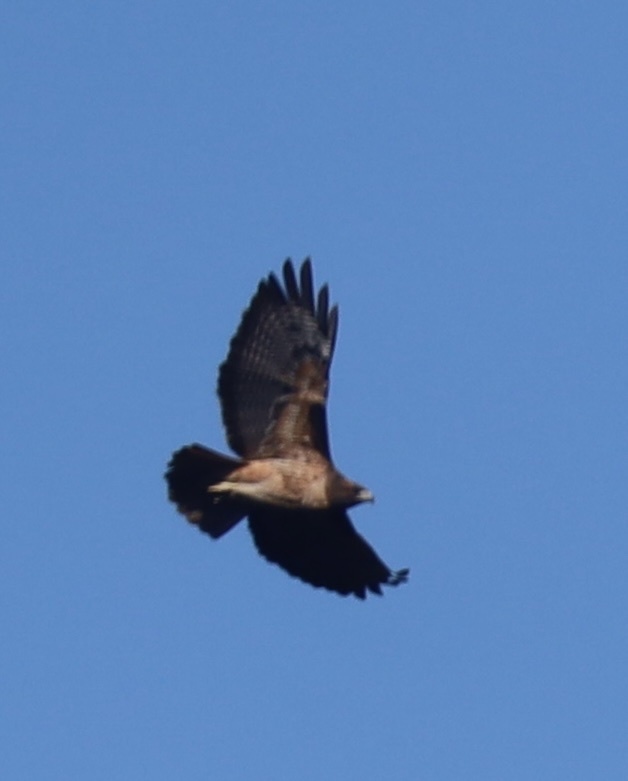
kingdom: Animalia
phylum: Chordata
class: Aves
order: Accipitriformes
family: Accipitridae
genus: Buteo
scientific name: Buteo jamaicensis
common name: Red-tailed hawk
